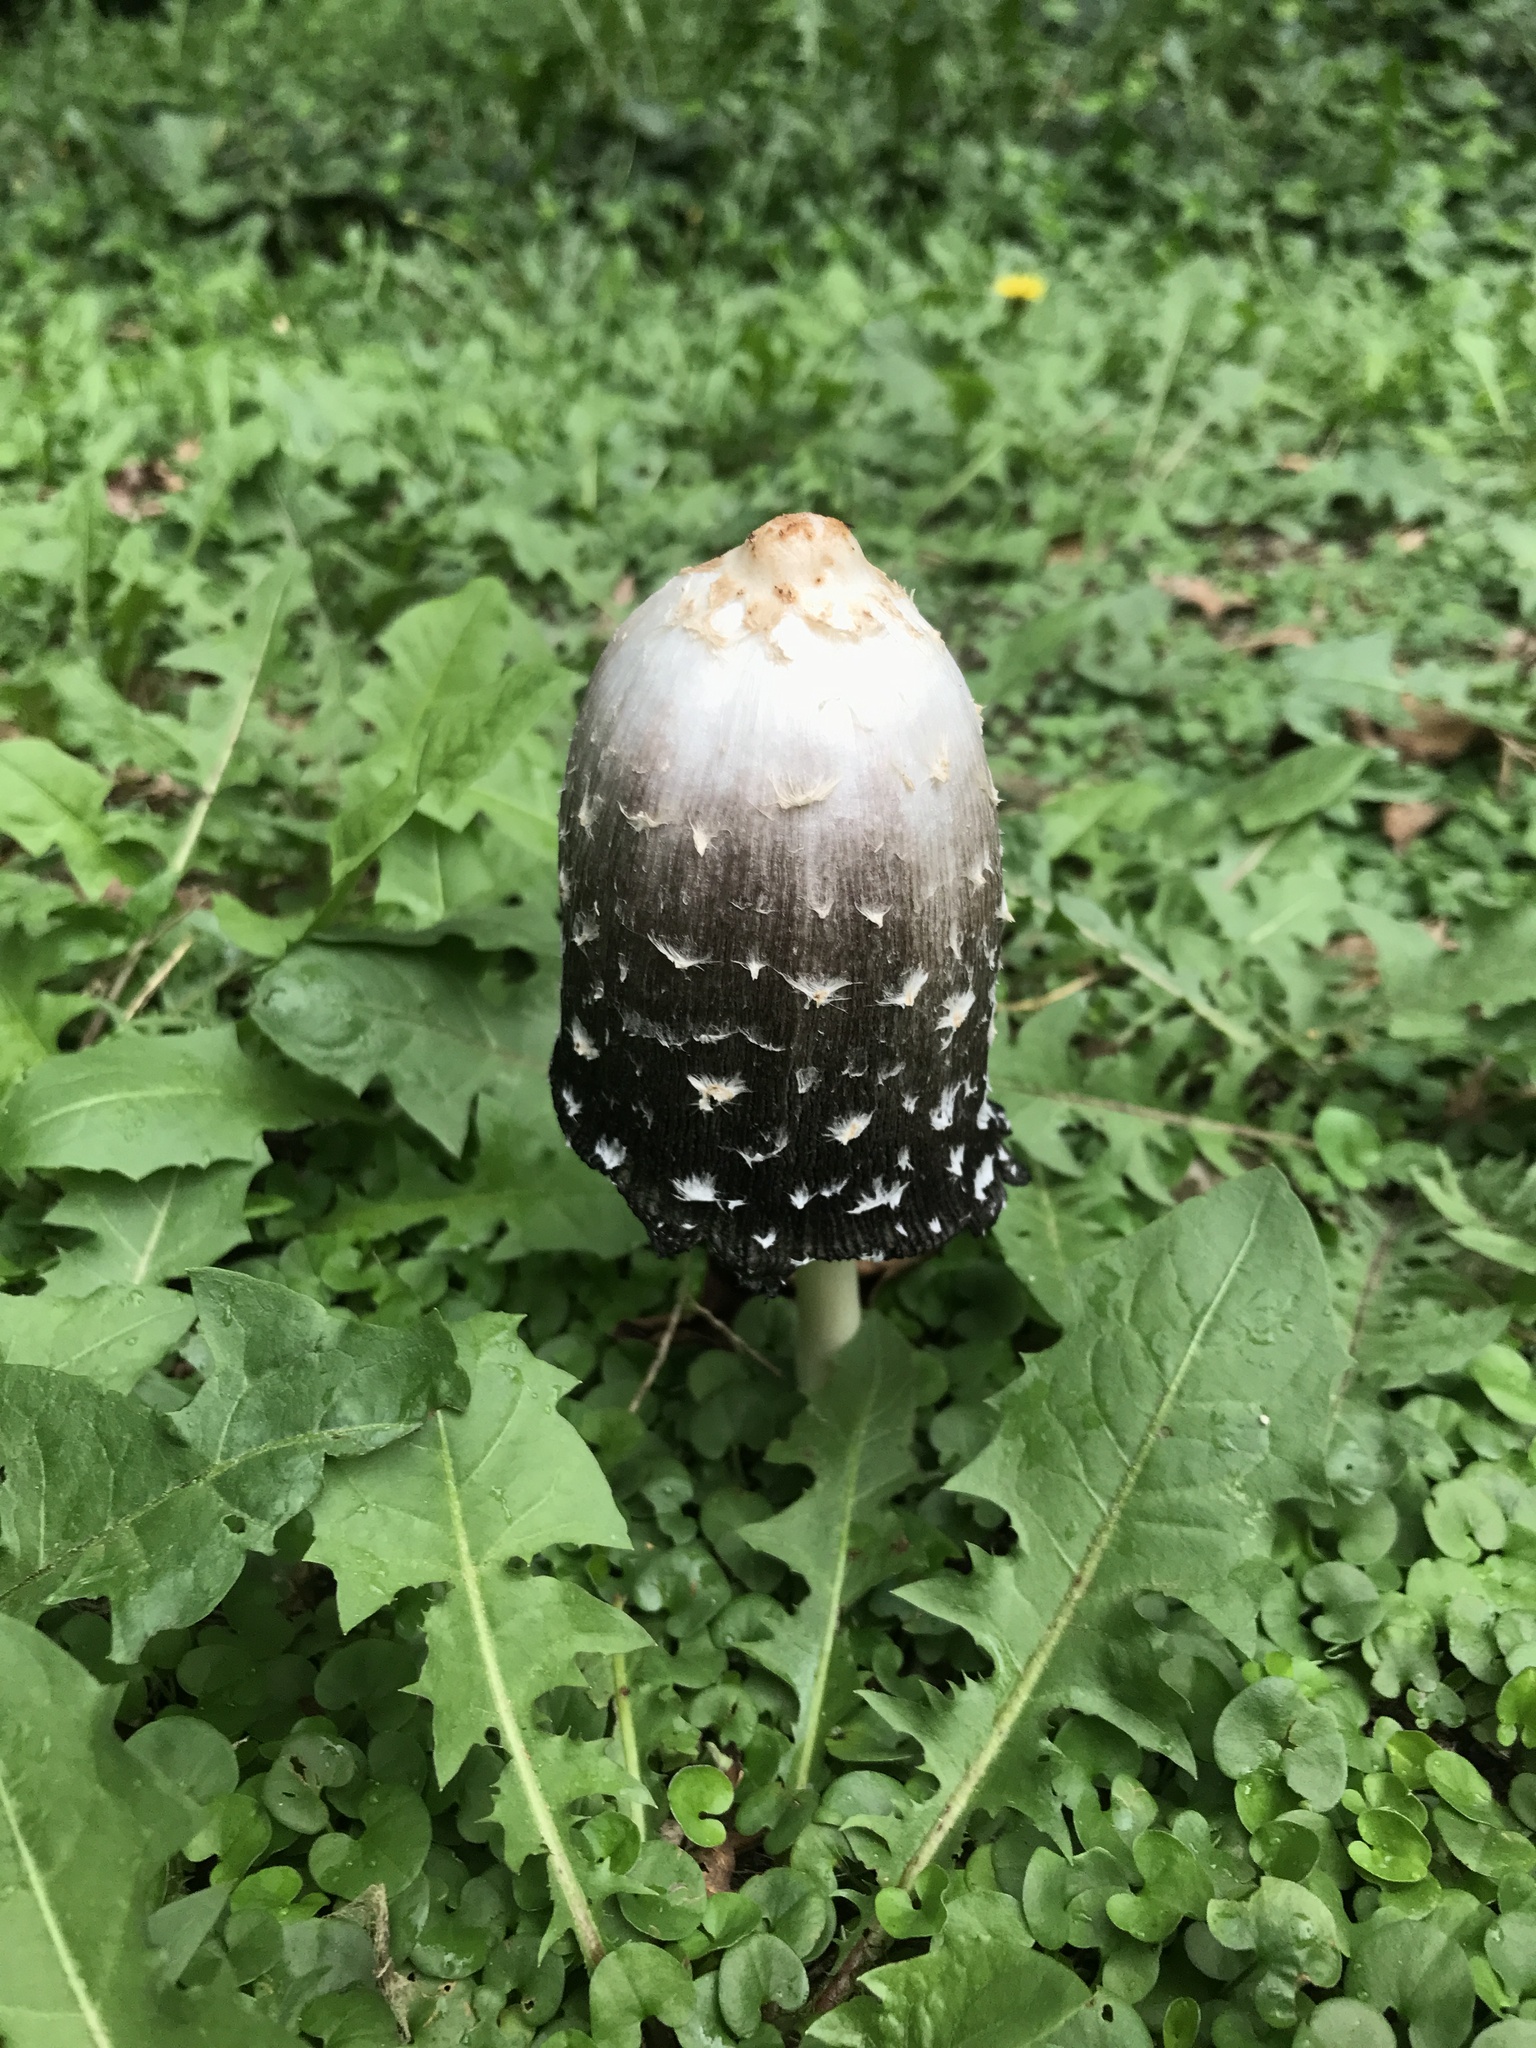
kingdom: Fungi
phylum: Basidiomycota
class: Agaricomycetes
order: Agaricales
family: Agaricaceae
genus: Coprinus
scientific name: Coprinus comatus
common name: Lawyer's wig
